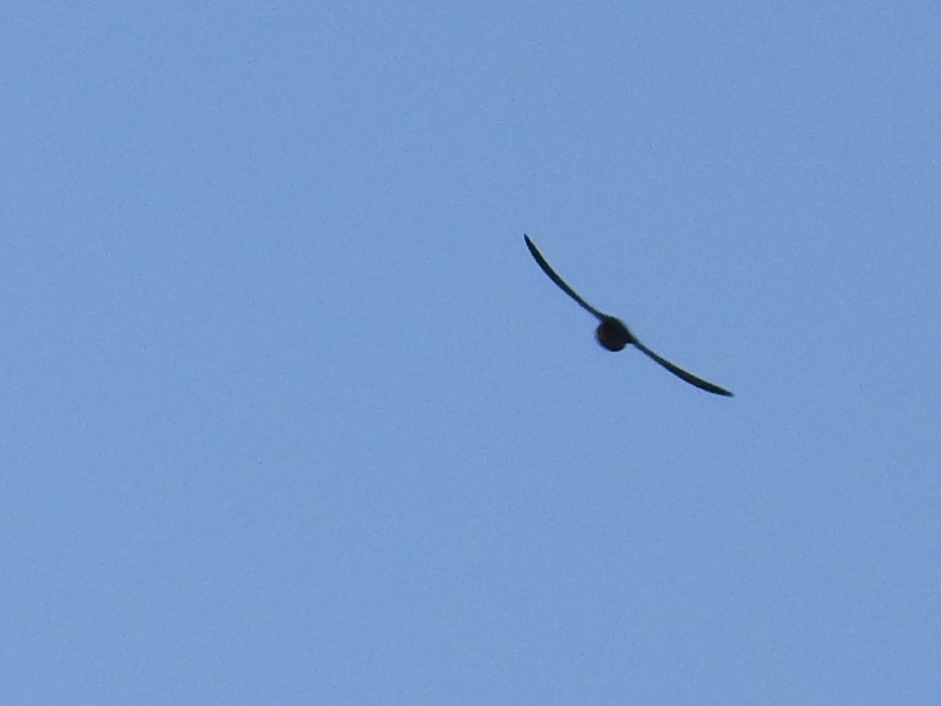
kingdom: Animalia
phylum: Chordata
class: Aves
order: Passeriformes
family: Hirundinidae
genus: Hirundo
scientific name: Hirundo rustica
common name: Barn swallow
